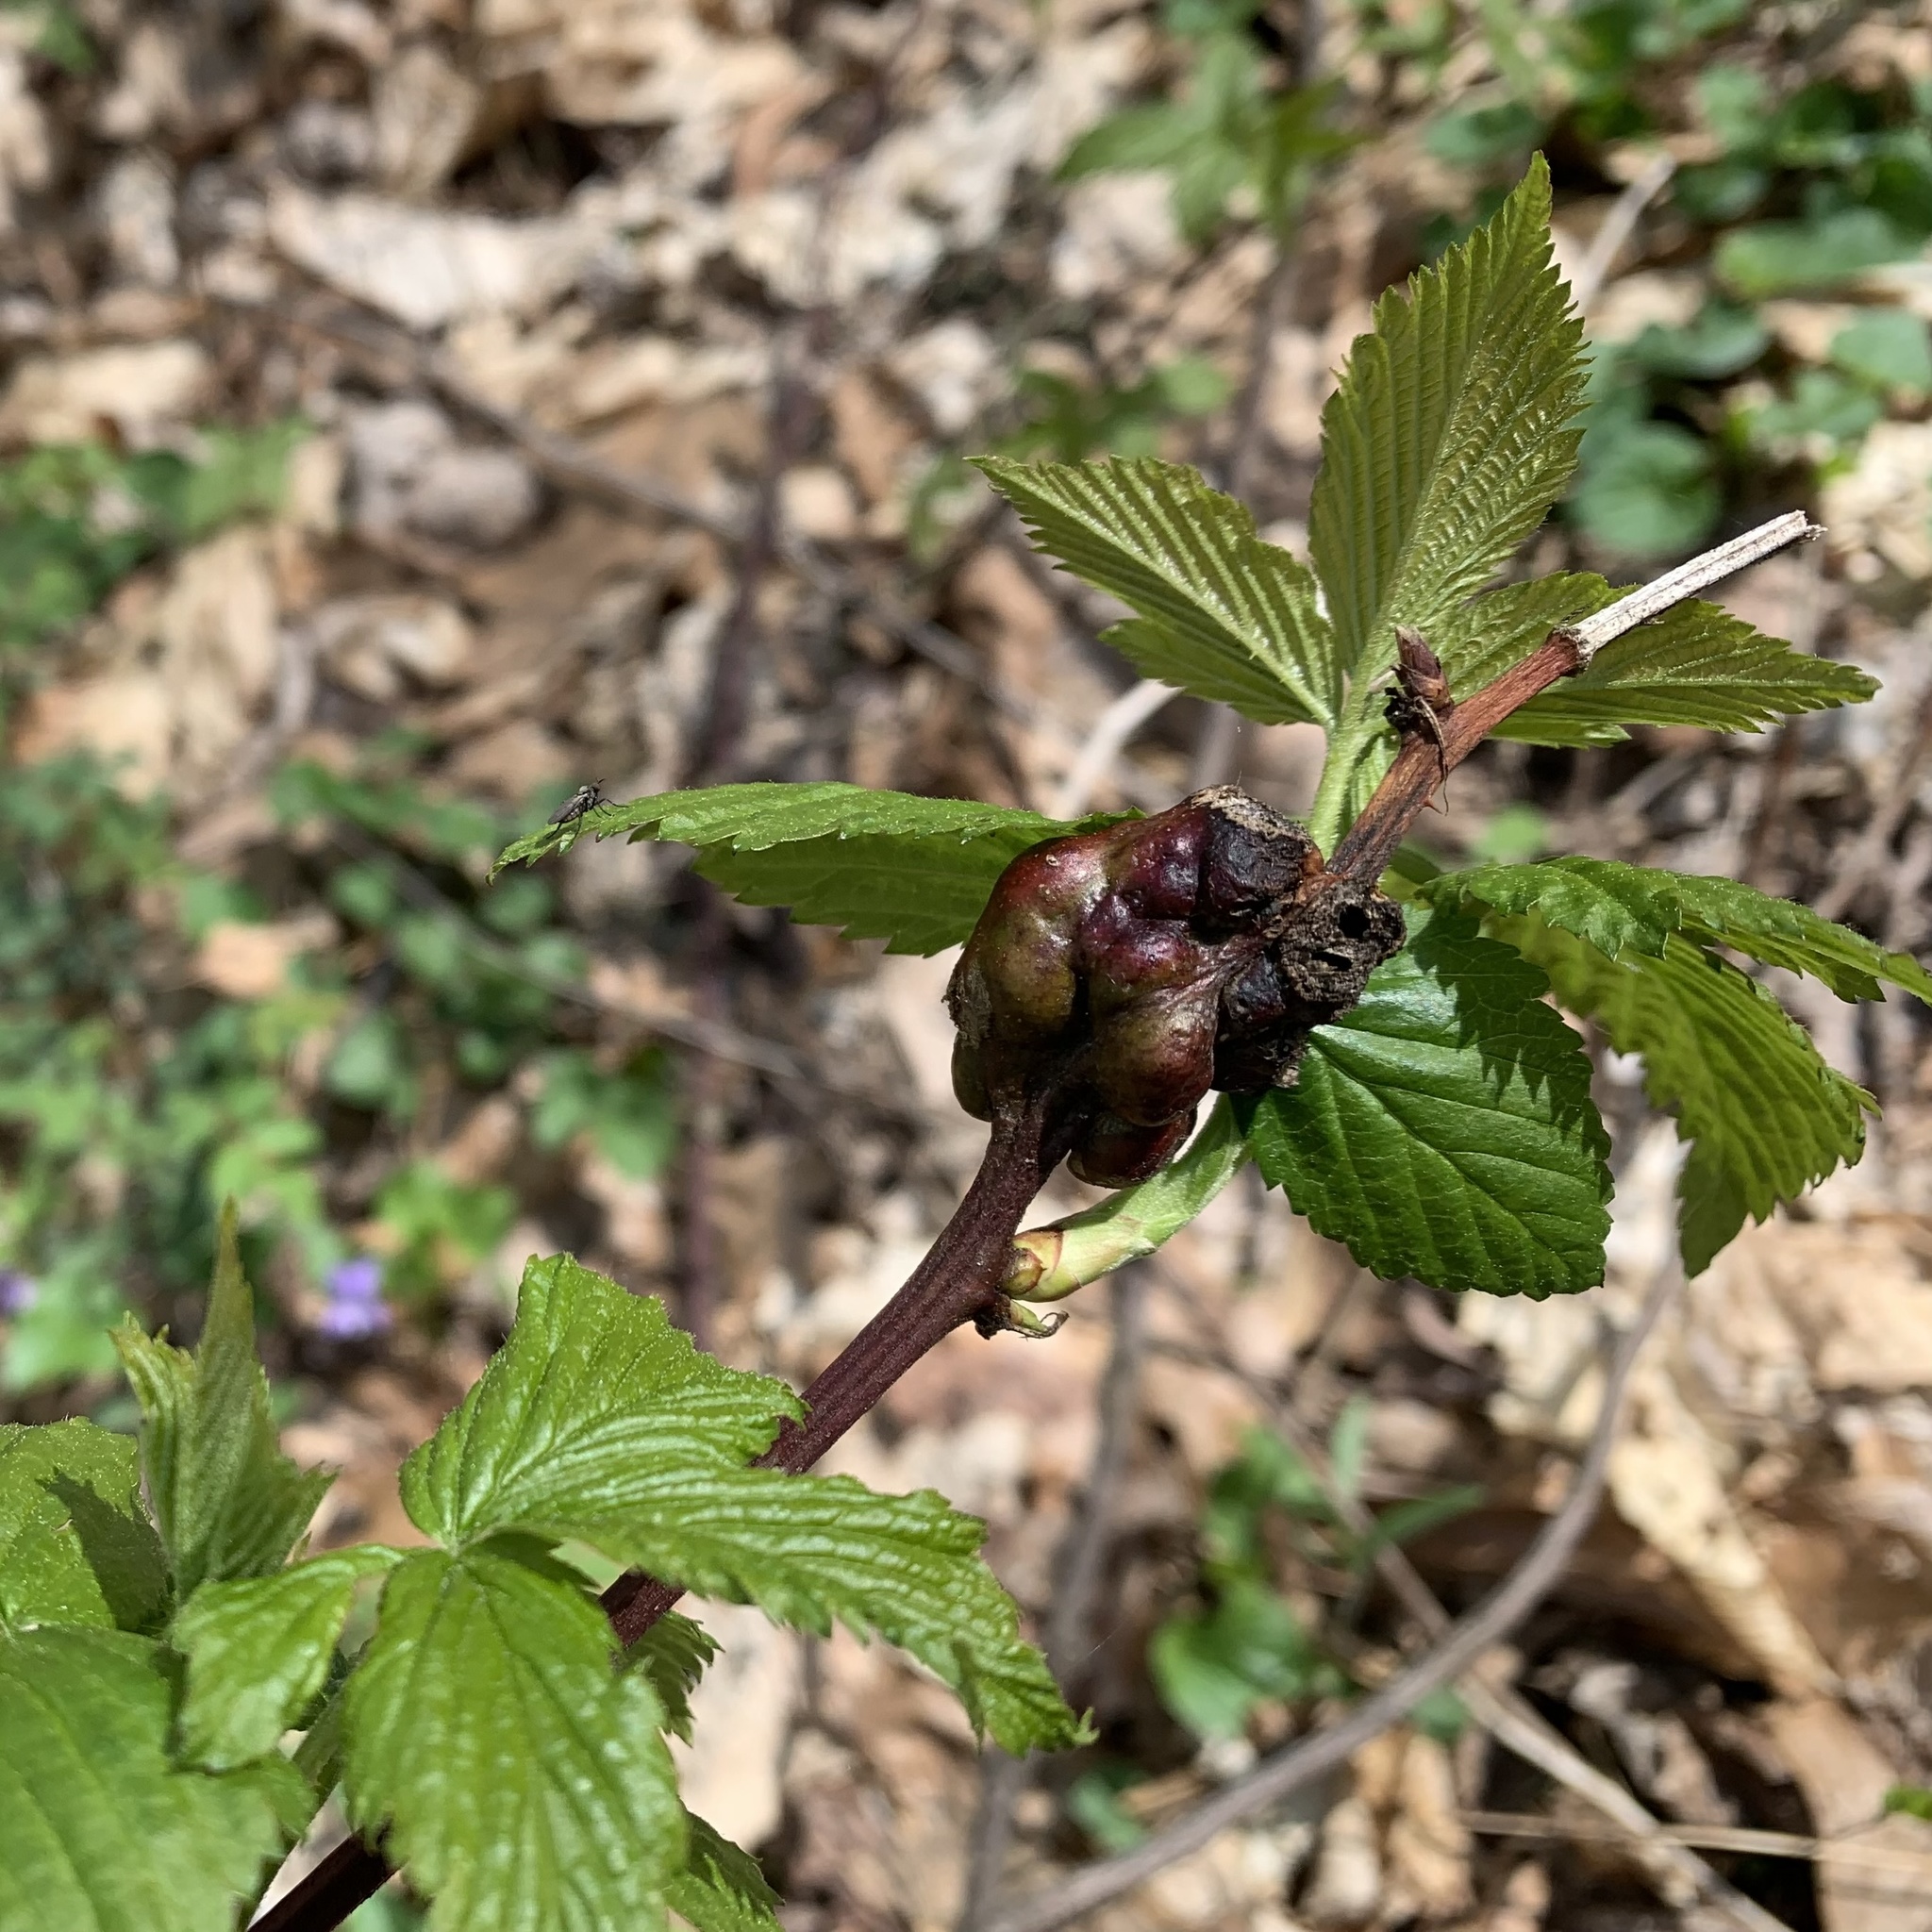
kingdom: Animalia
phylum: Arthropoda
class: Insecta
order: Hymenoptera
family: Cynipidae
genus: Diastrophus
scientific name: Diastrophus
